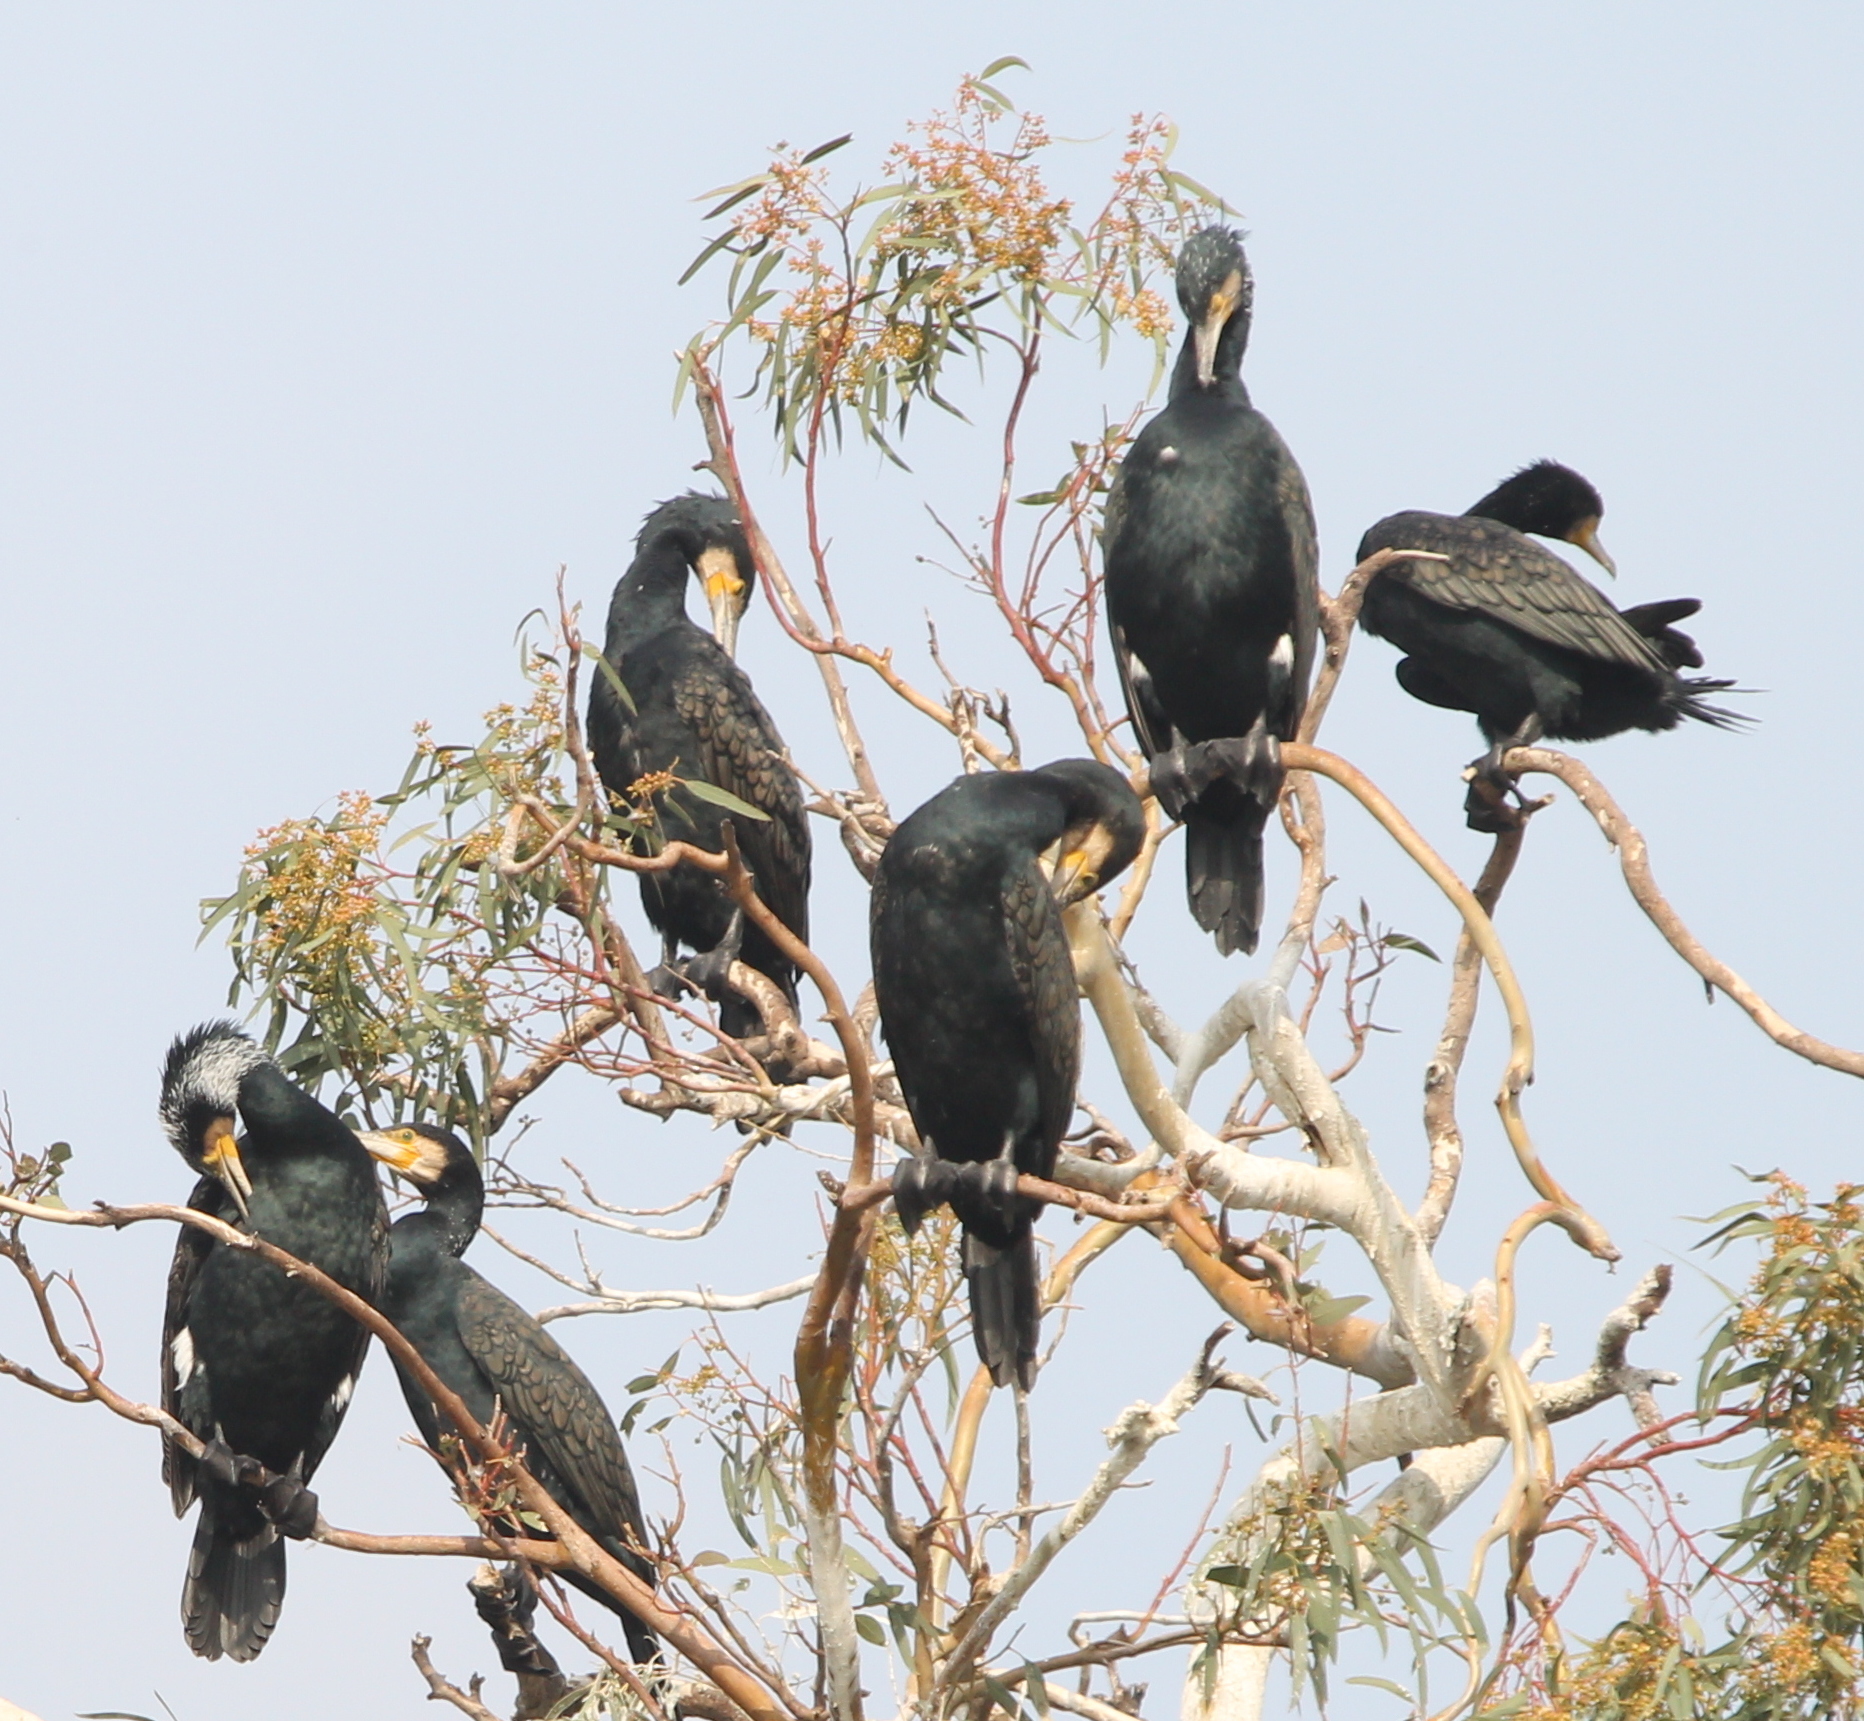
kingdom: Animalia
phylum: Chordata
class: Aves
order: Suliformes
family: Phalacrocoracidae
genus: Phalacrocorax
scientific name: Phalacrocorax carbo
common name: Great cormorant
